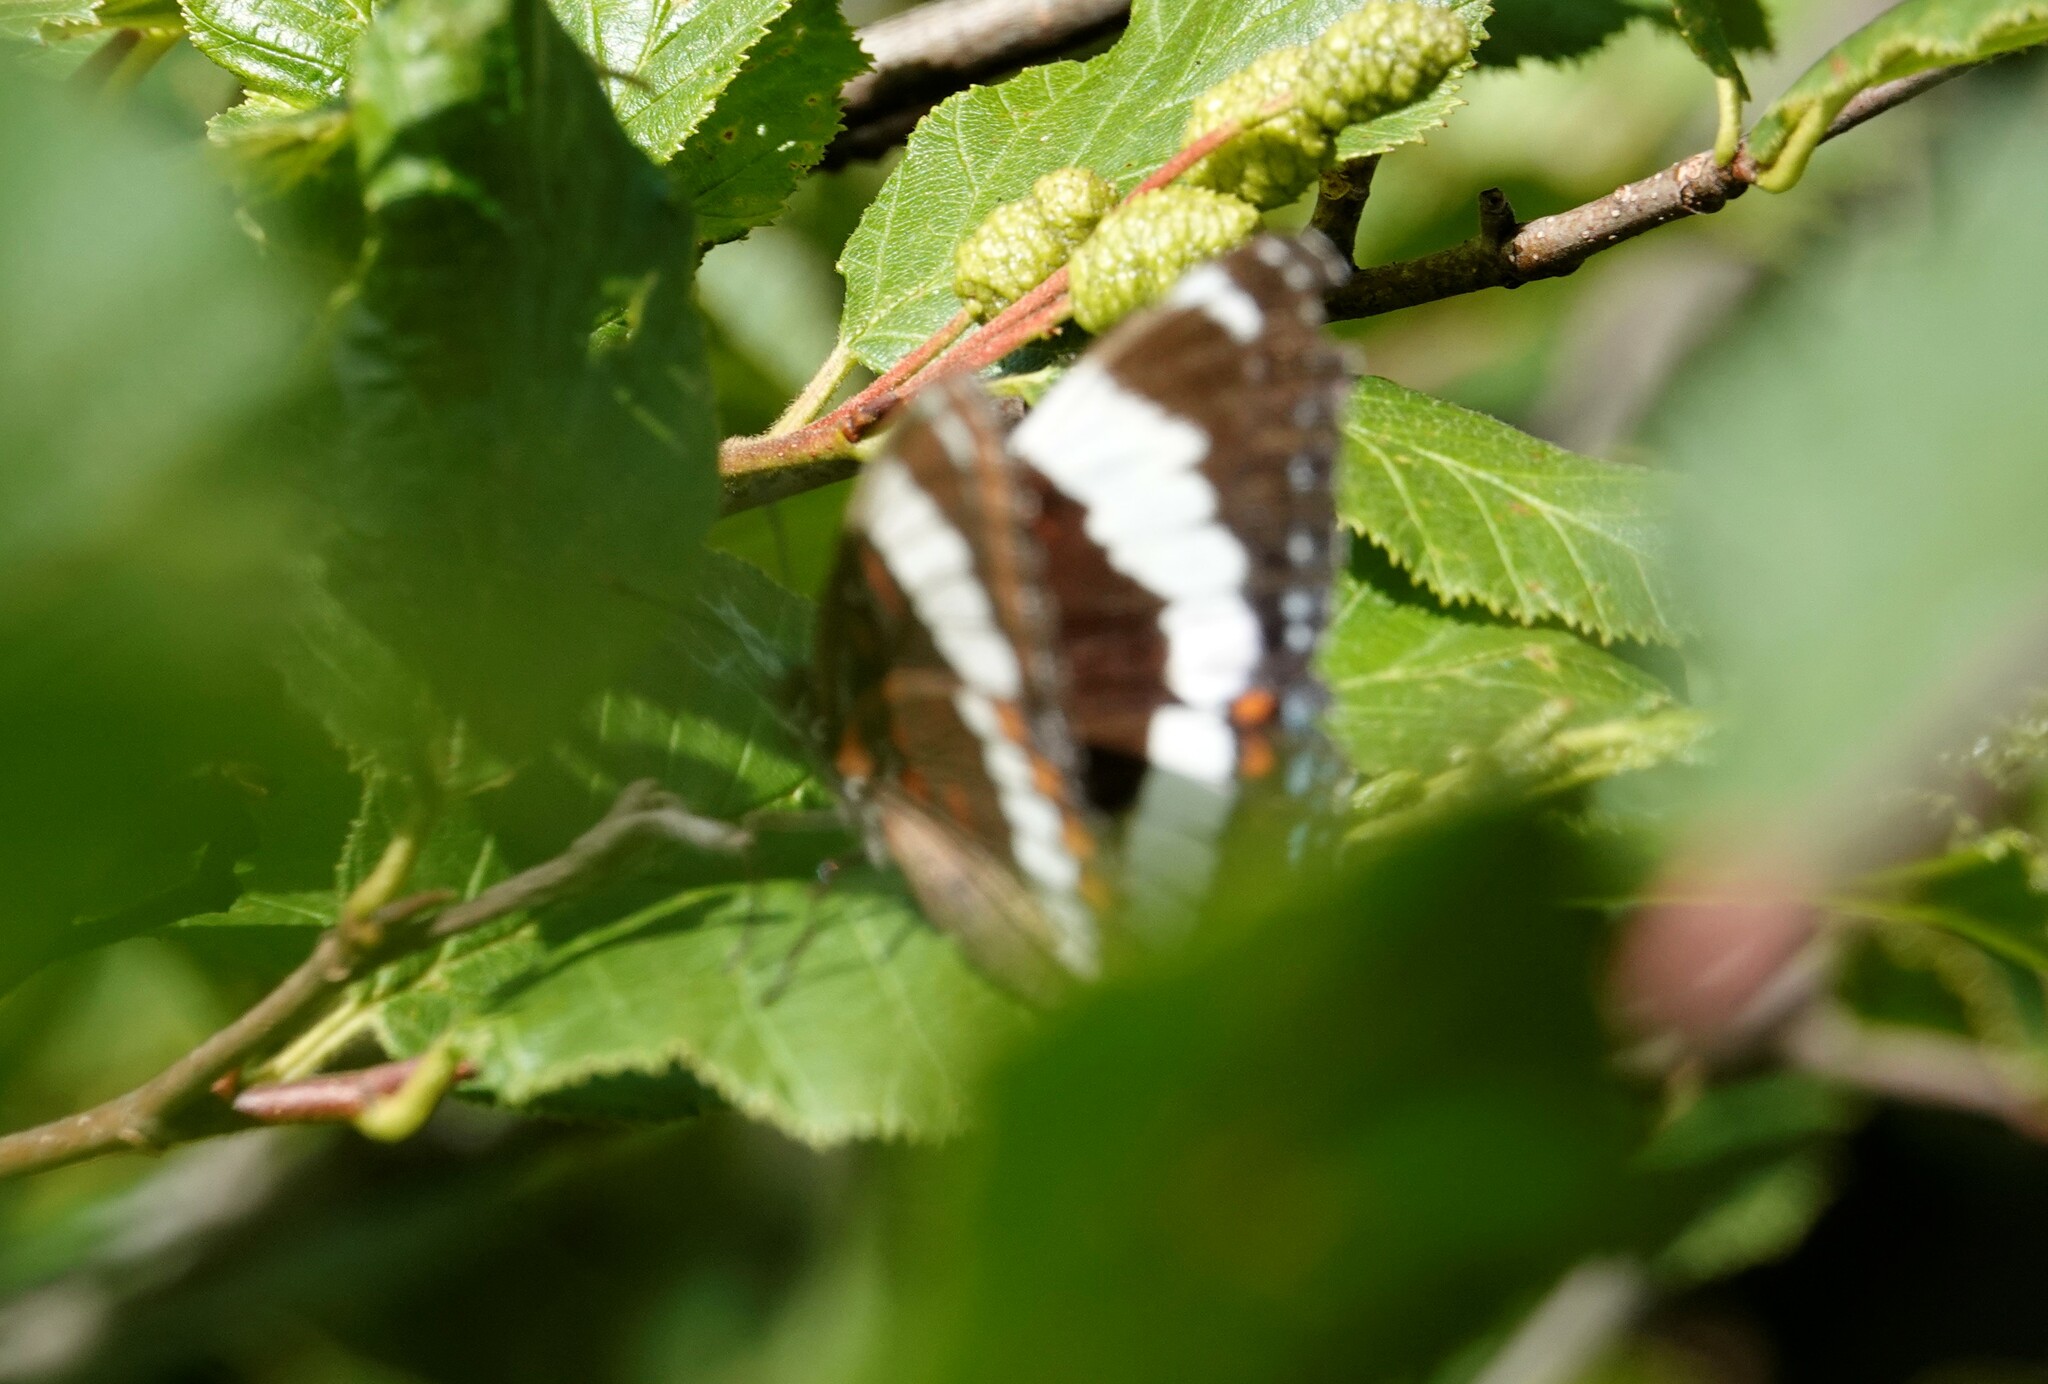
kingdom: Animalia
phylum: Arthropoda
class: Insecta
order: Lepidoptera
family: Nymphalidae
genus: Limenitis
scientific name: Limenitis arthemis
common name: Red-spotted admiral
